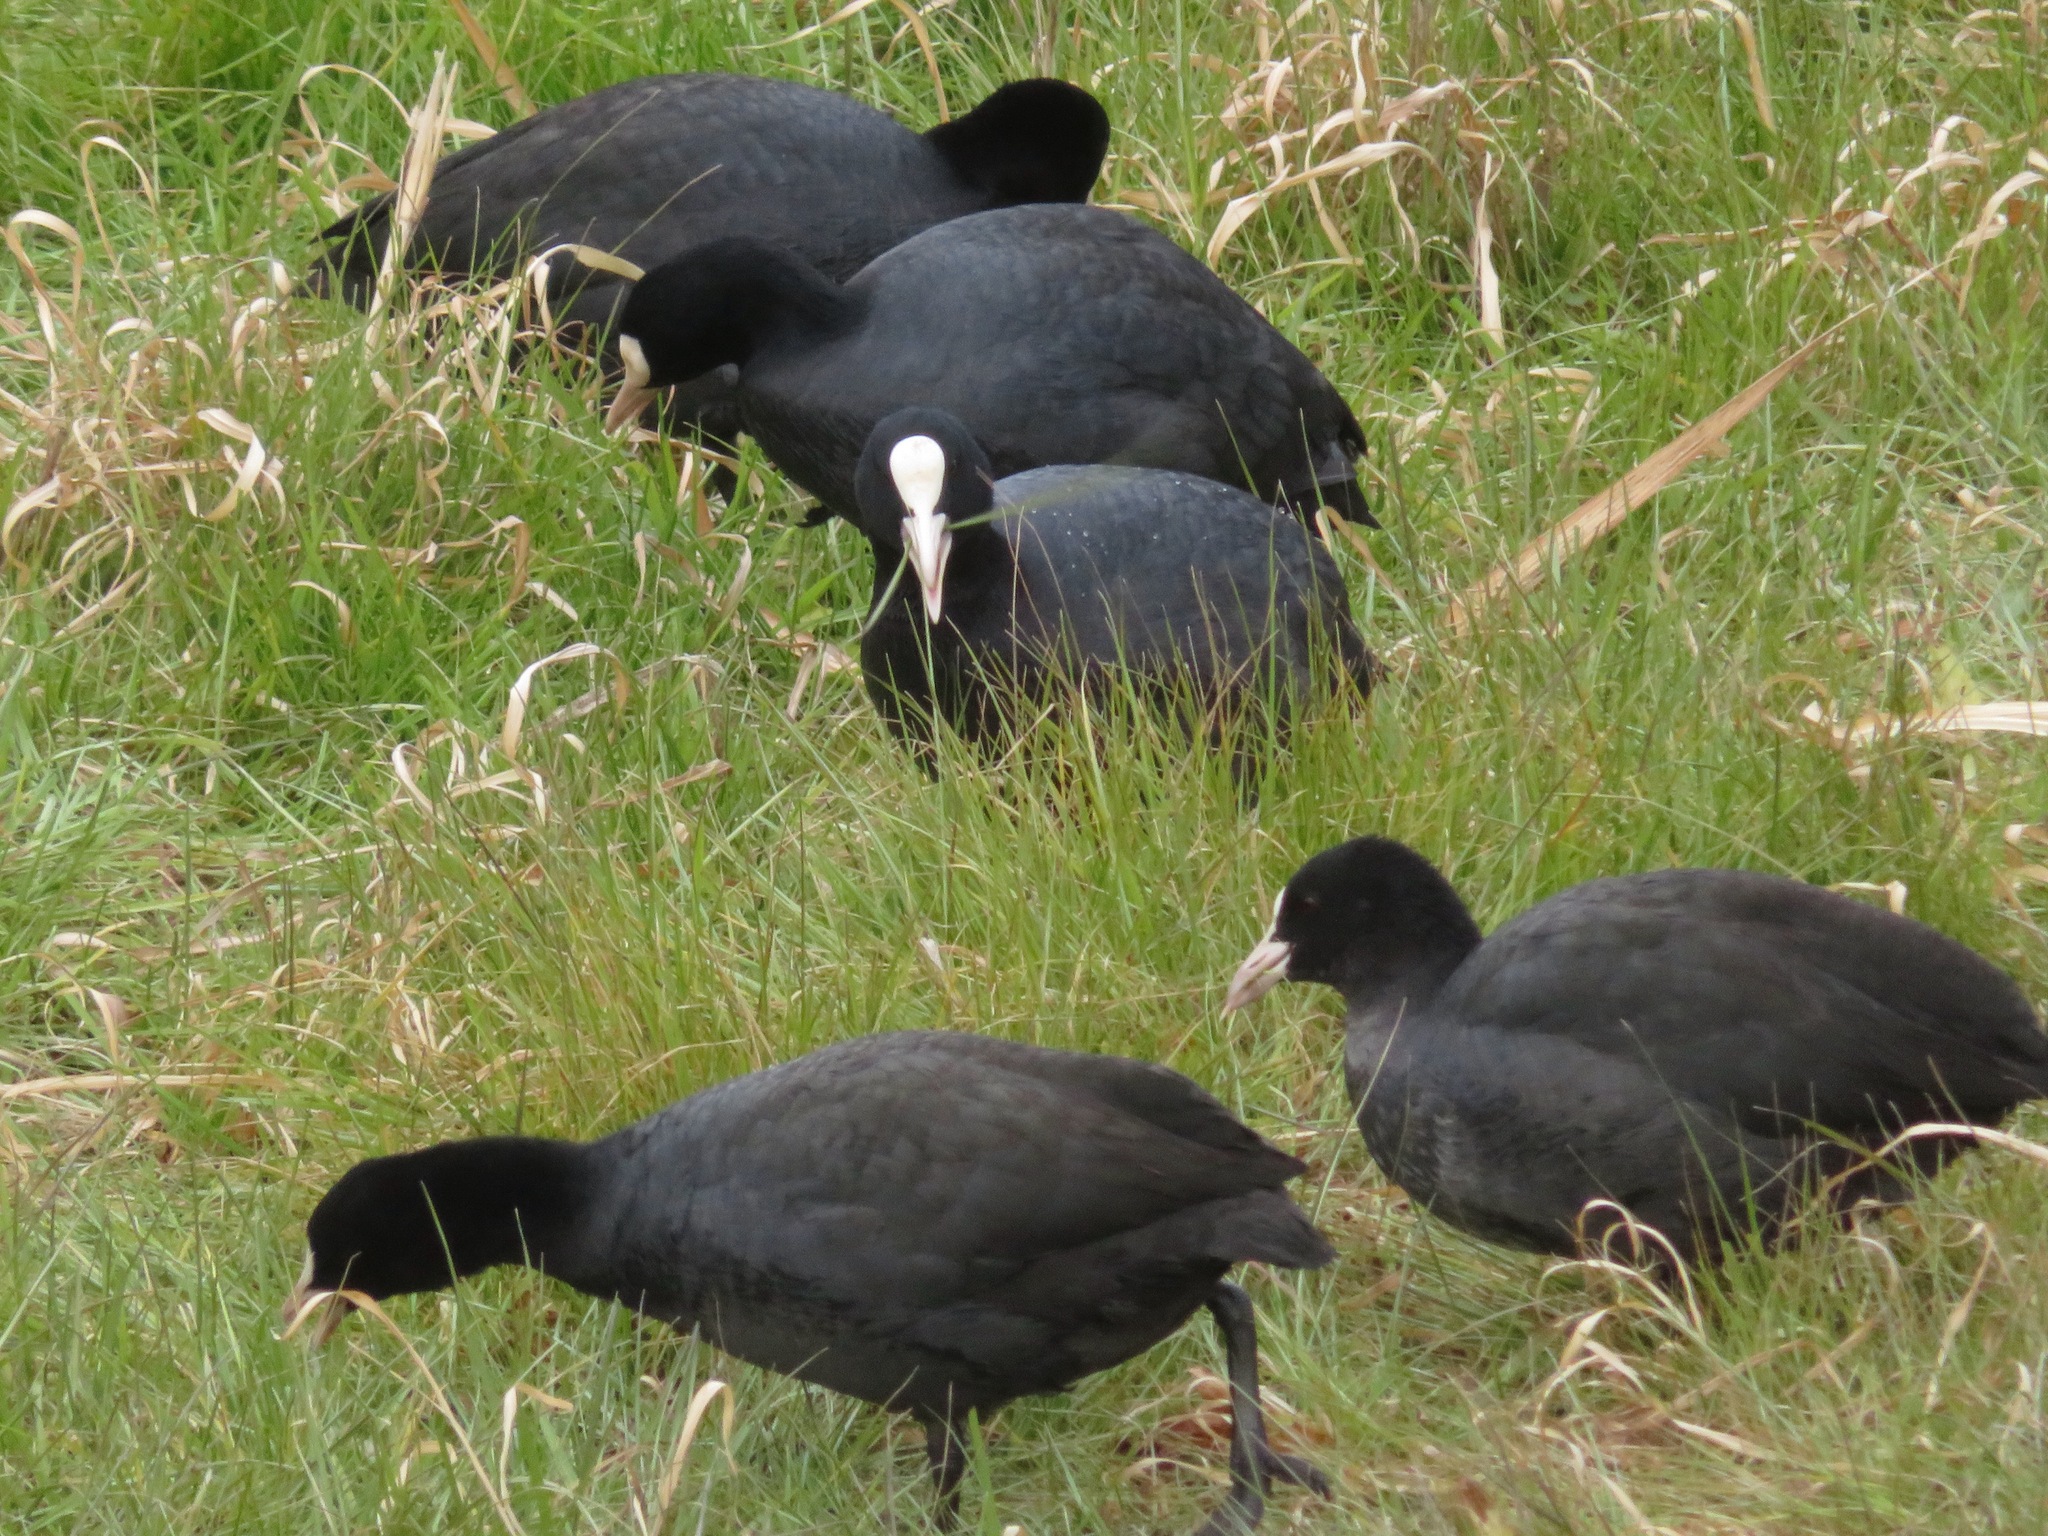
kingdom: Animalia
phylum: Chordata
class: Aves
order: Gruiformes
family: Rallidae
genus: Fulica
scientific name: Fulica atra
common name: Eurasian coot
